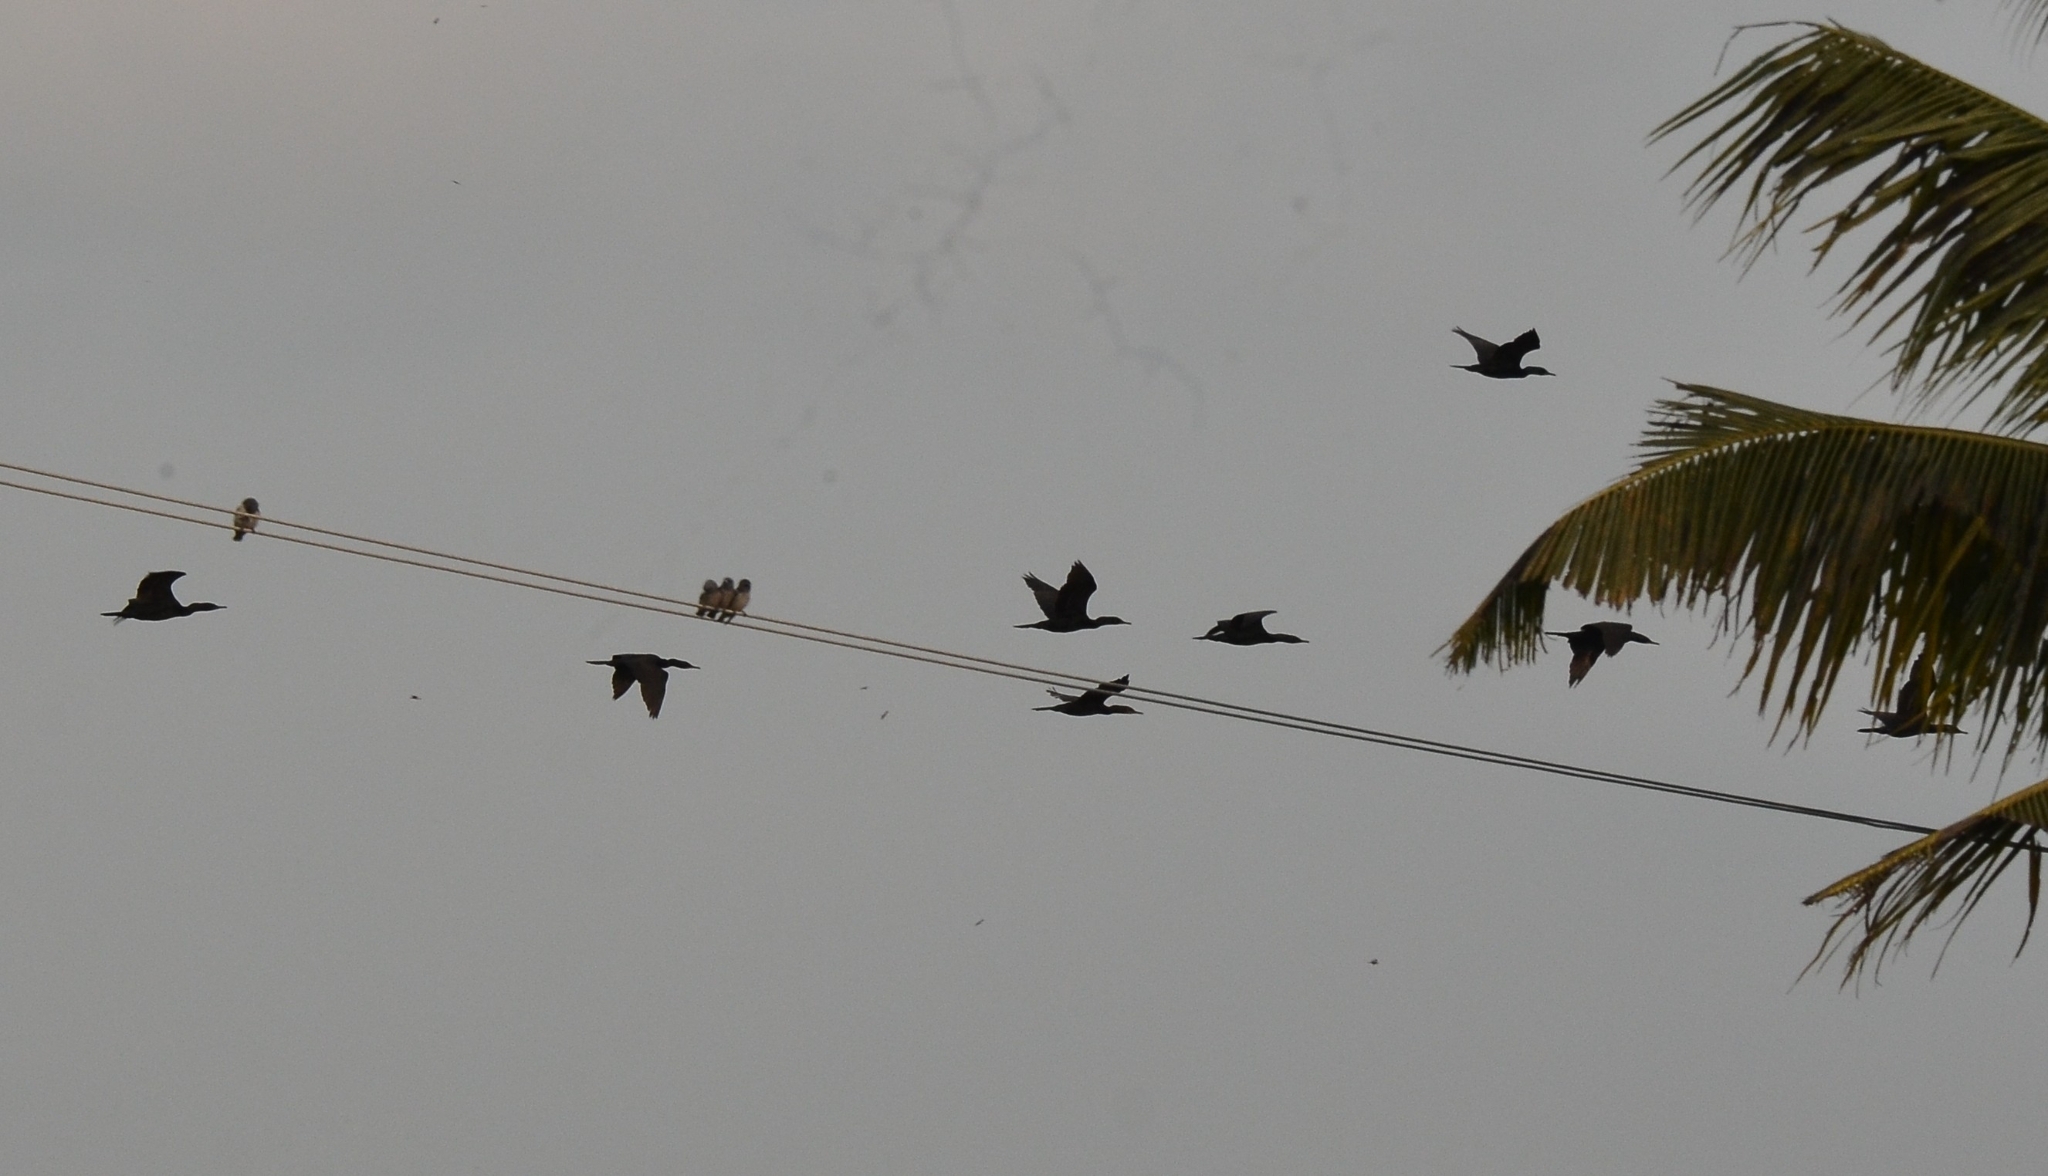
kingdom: Animalia
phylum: Chordata
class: Aves
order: Suliformes
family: Phalacrocoracidae
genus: Phalacrocorax
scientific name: Phalacrocorax fuscicollis
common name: Indian cormorant
